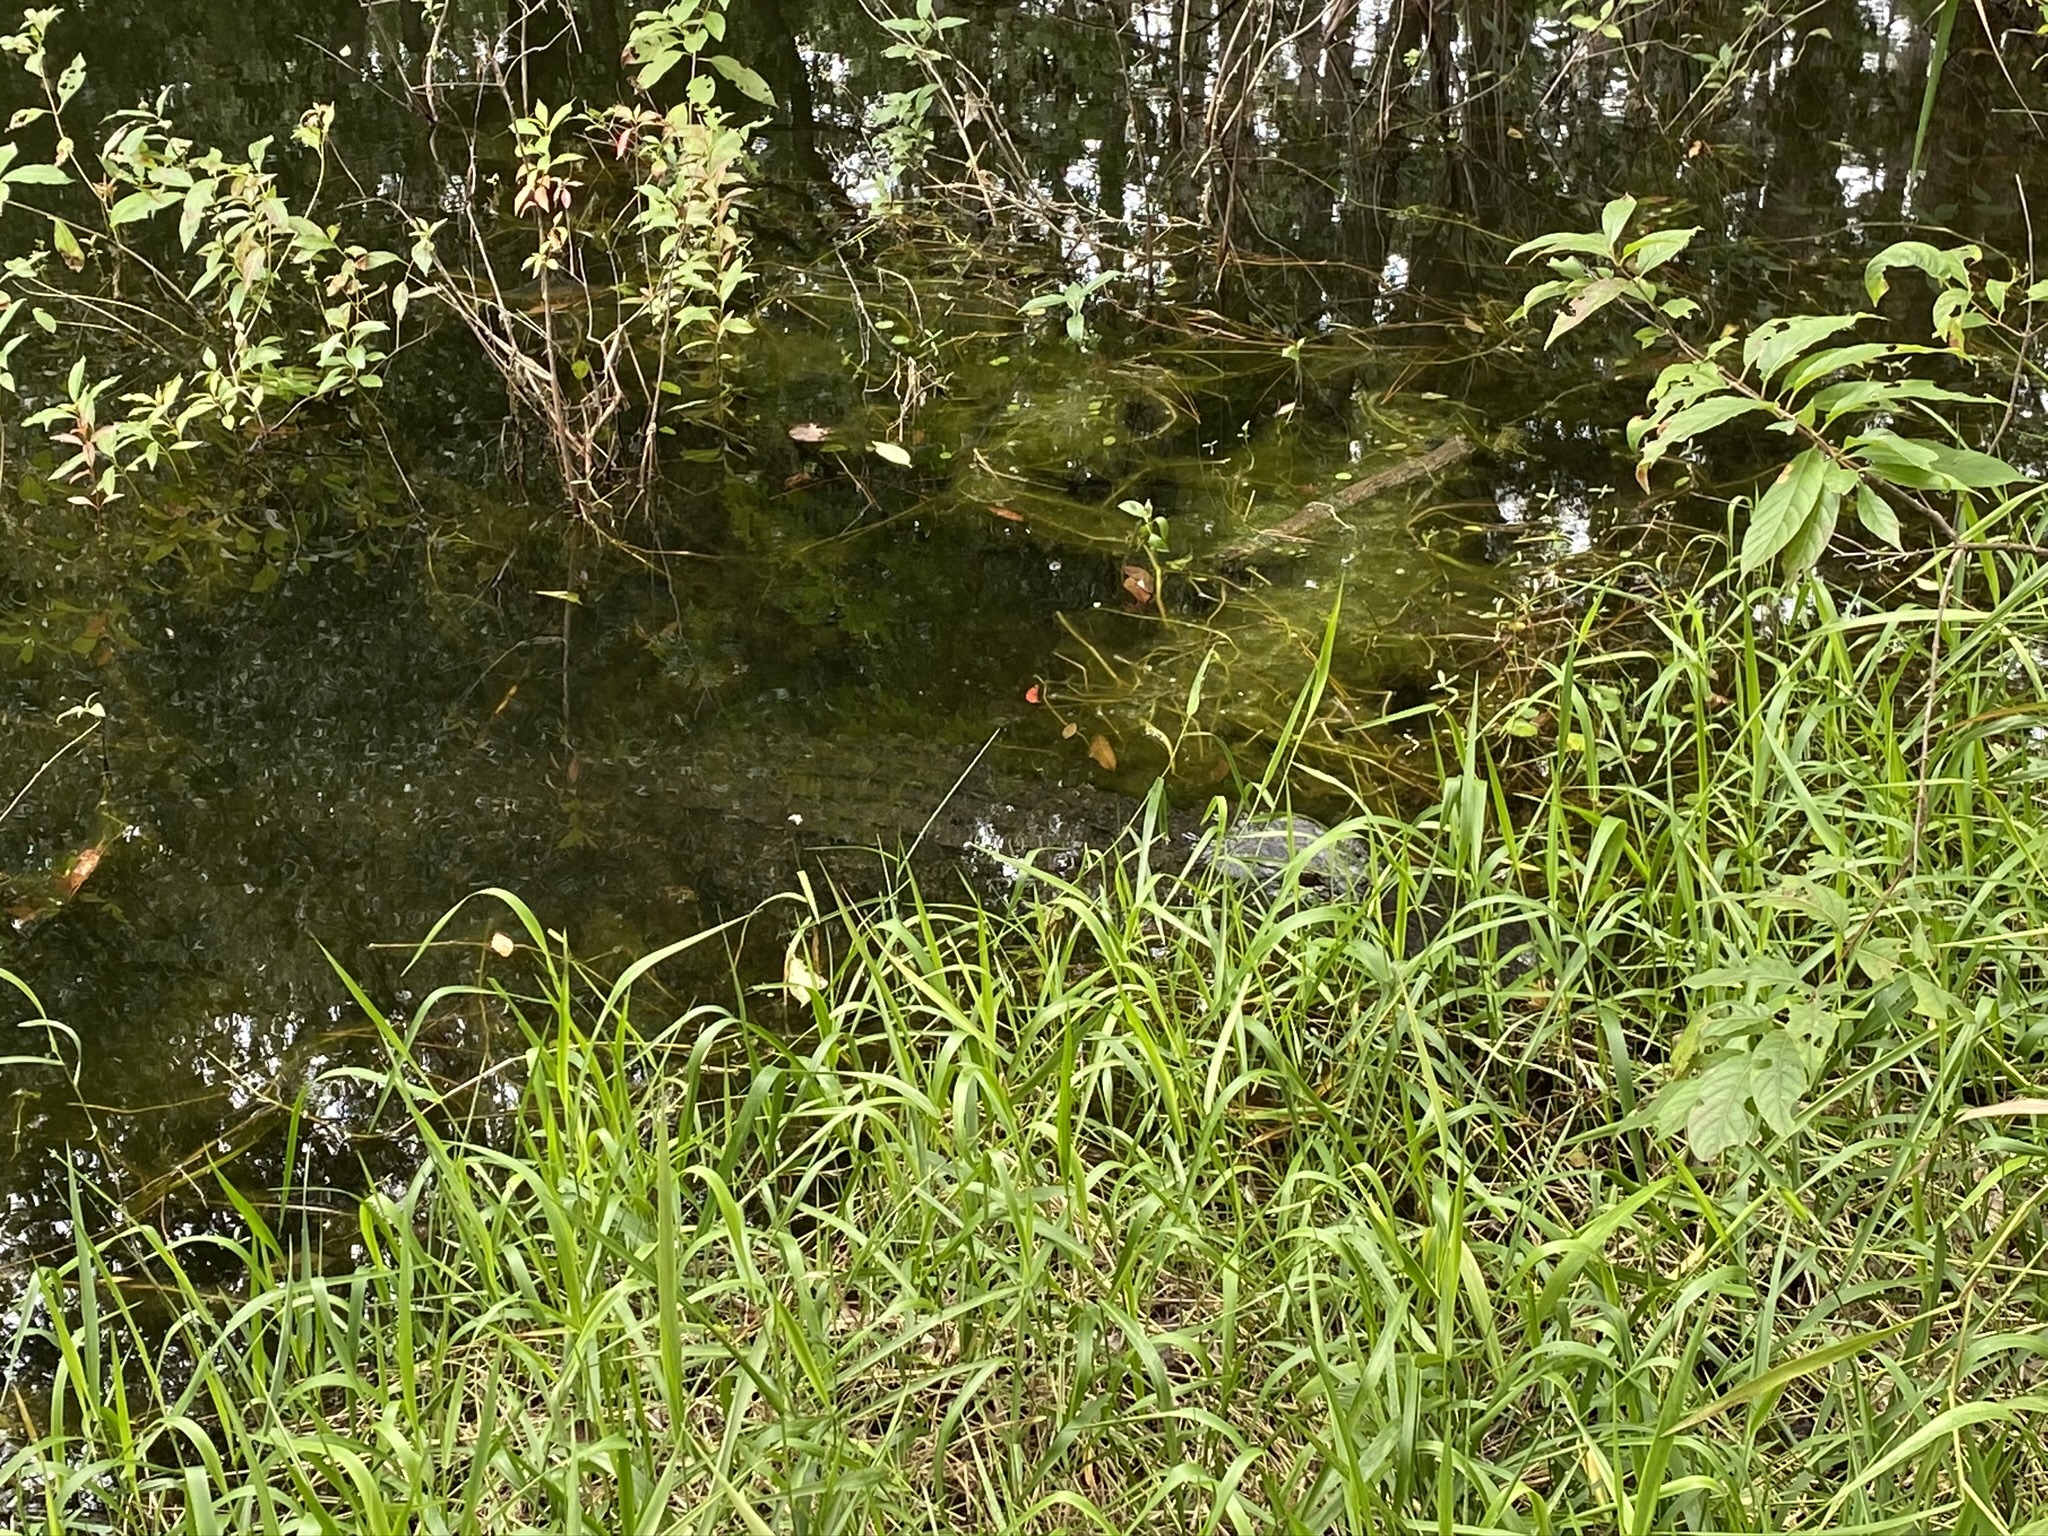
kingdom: Animalia
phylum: Chordata
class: Crocodylia
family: Alligatoridae
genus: Alligator
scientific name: Alligator mississippiensis
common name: American alligator
